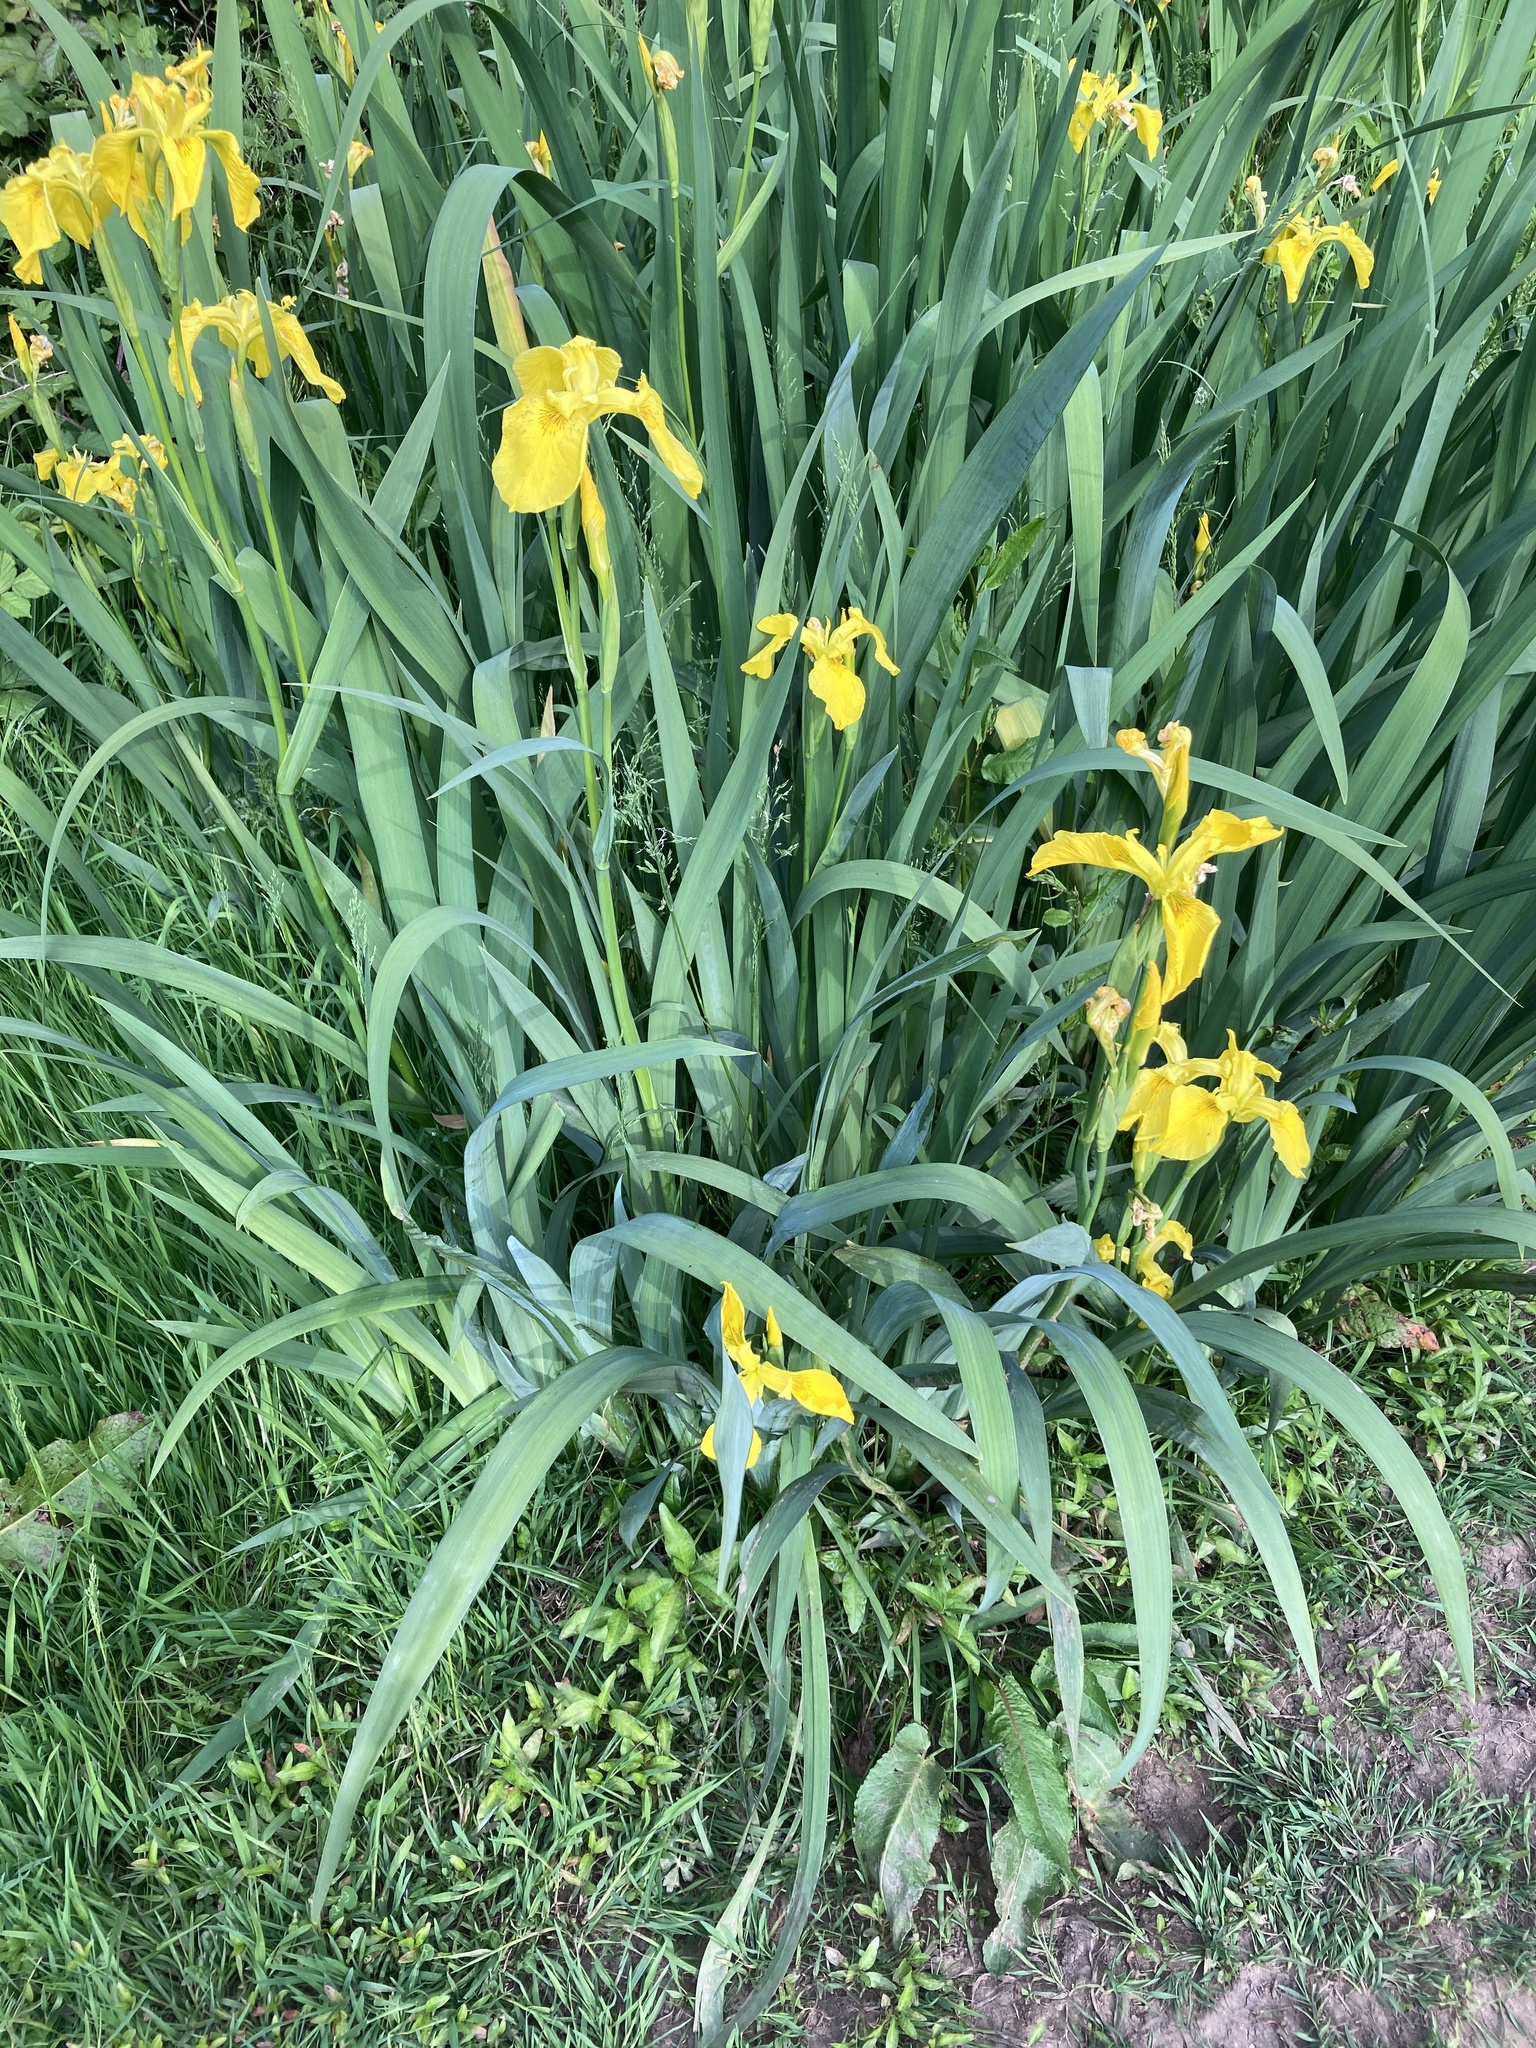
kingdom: Plantae
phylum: Tracheophyta
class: Liliopsida
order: Asparagales
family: Iridaceae
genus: Iris
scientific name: Iris pseudacorus
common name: Yellow flag
